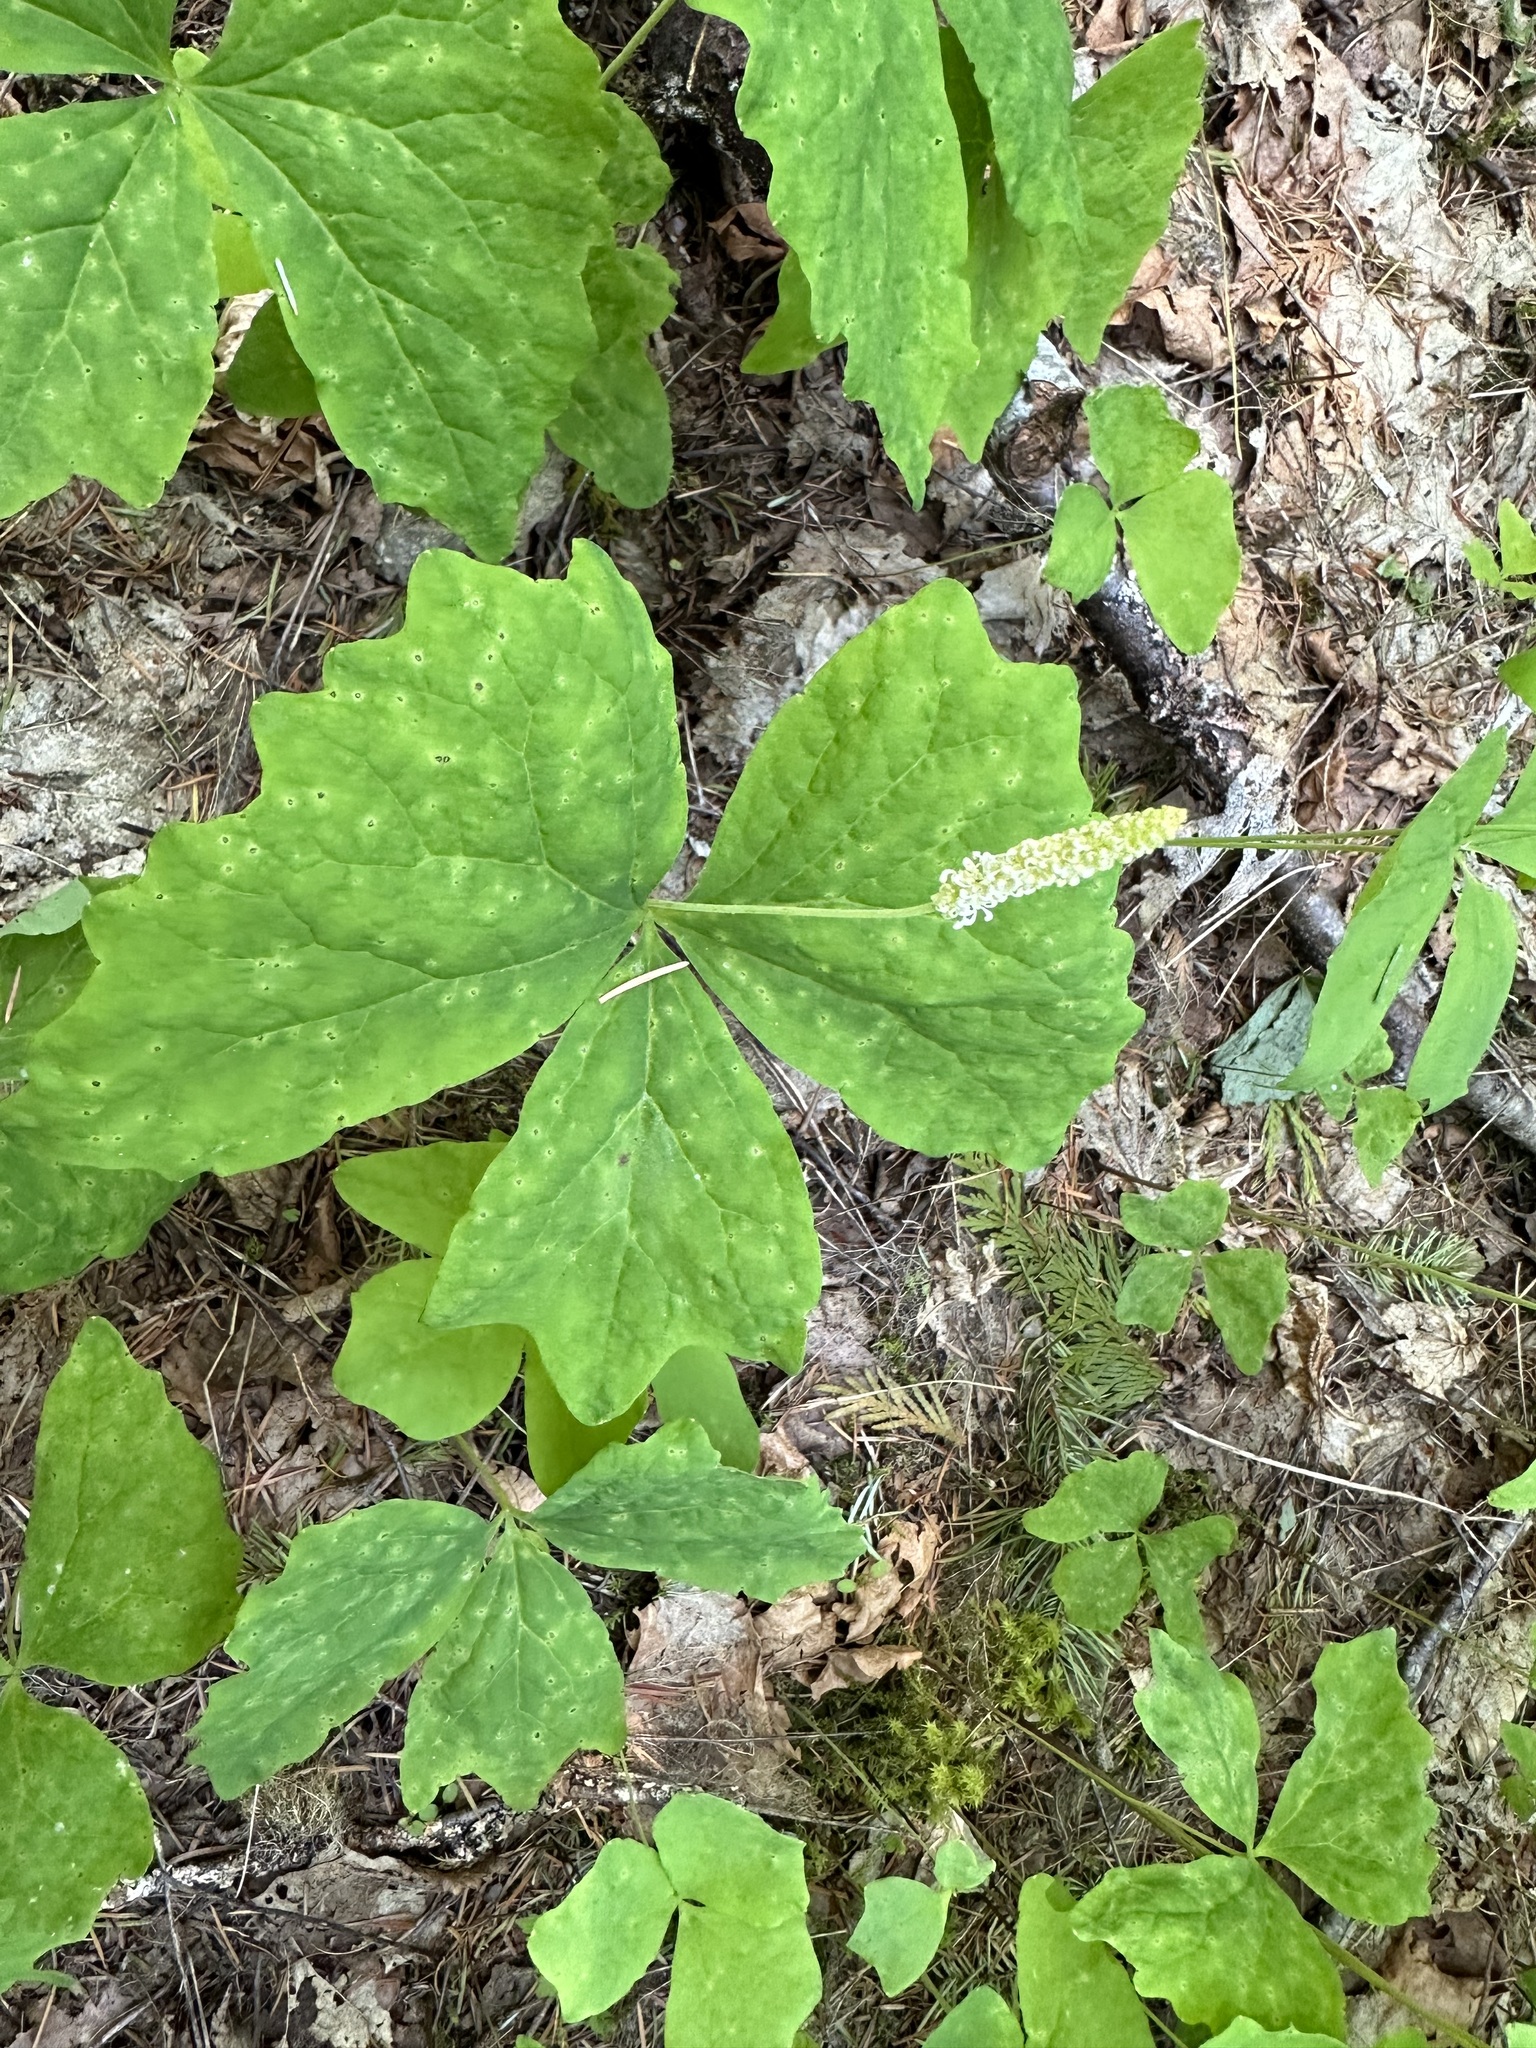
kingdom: Plantae
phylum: Tracheophyta
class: Magnoliopsida
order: Ranunculales
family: Berberidaceae
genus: Achlys
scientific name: Achlys triphylla
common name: Vanilla-leaf
